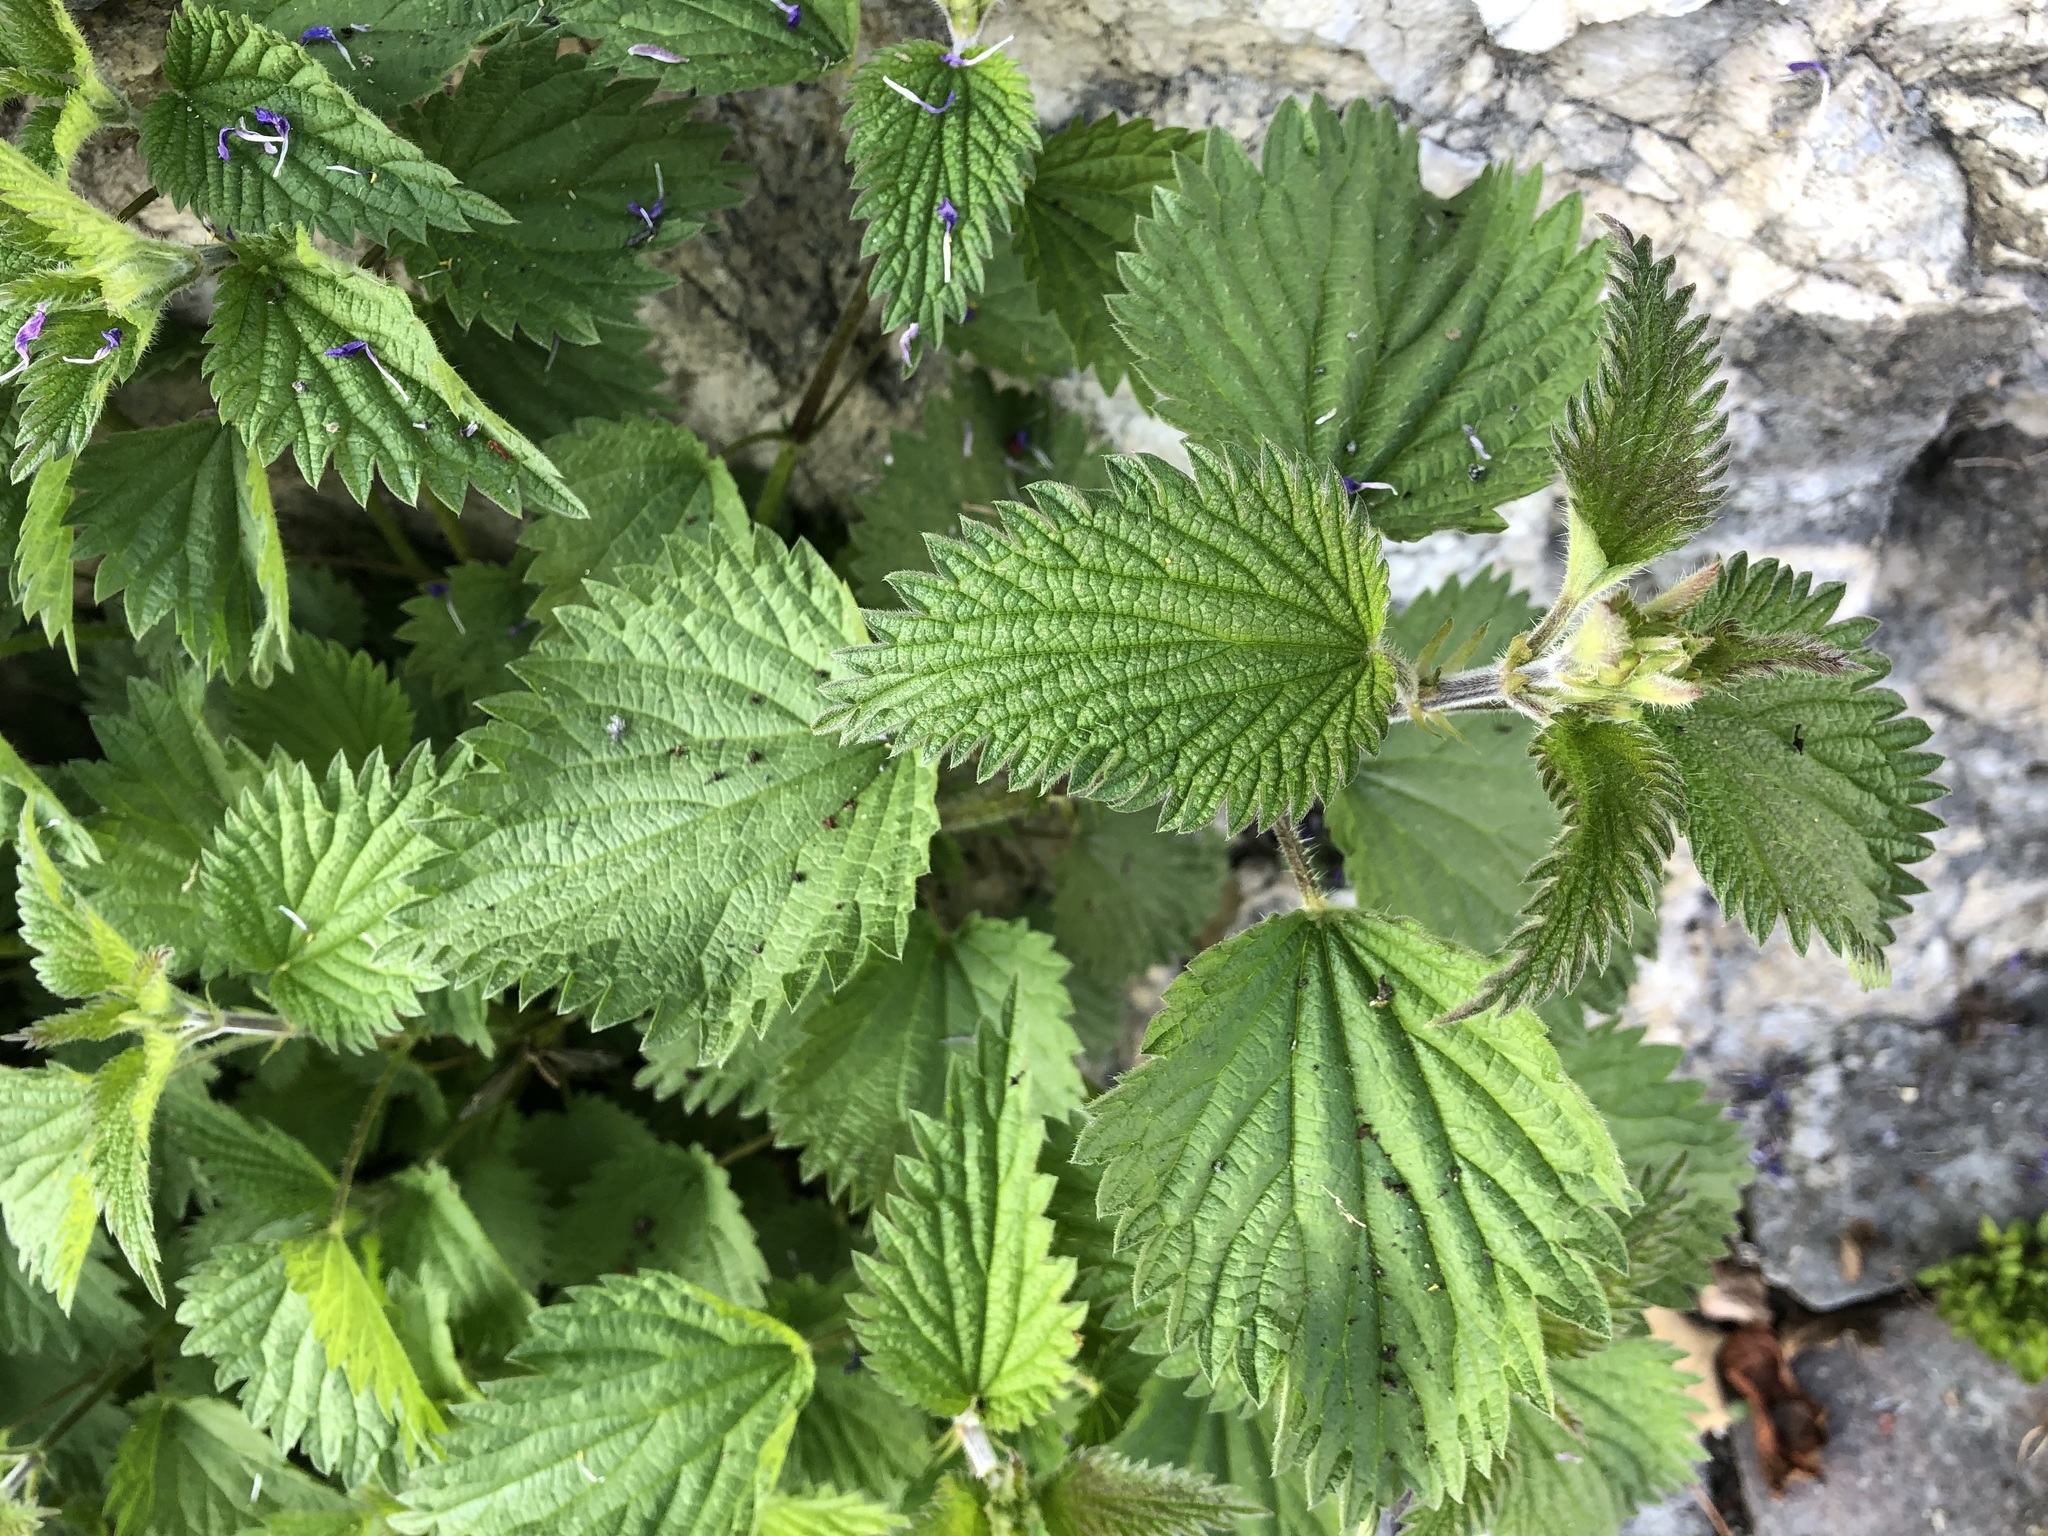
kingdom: Plantae
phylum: Tracheophyta
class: Magnoliopsida
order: Rosales
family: Urticaceae
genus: Urtica
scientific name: Urtica dioica
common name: Common nettle
